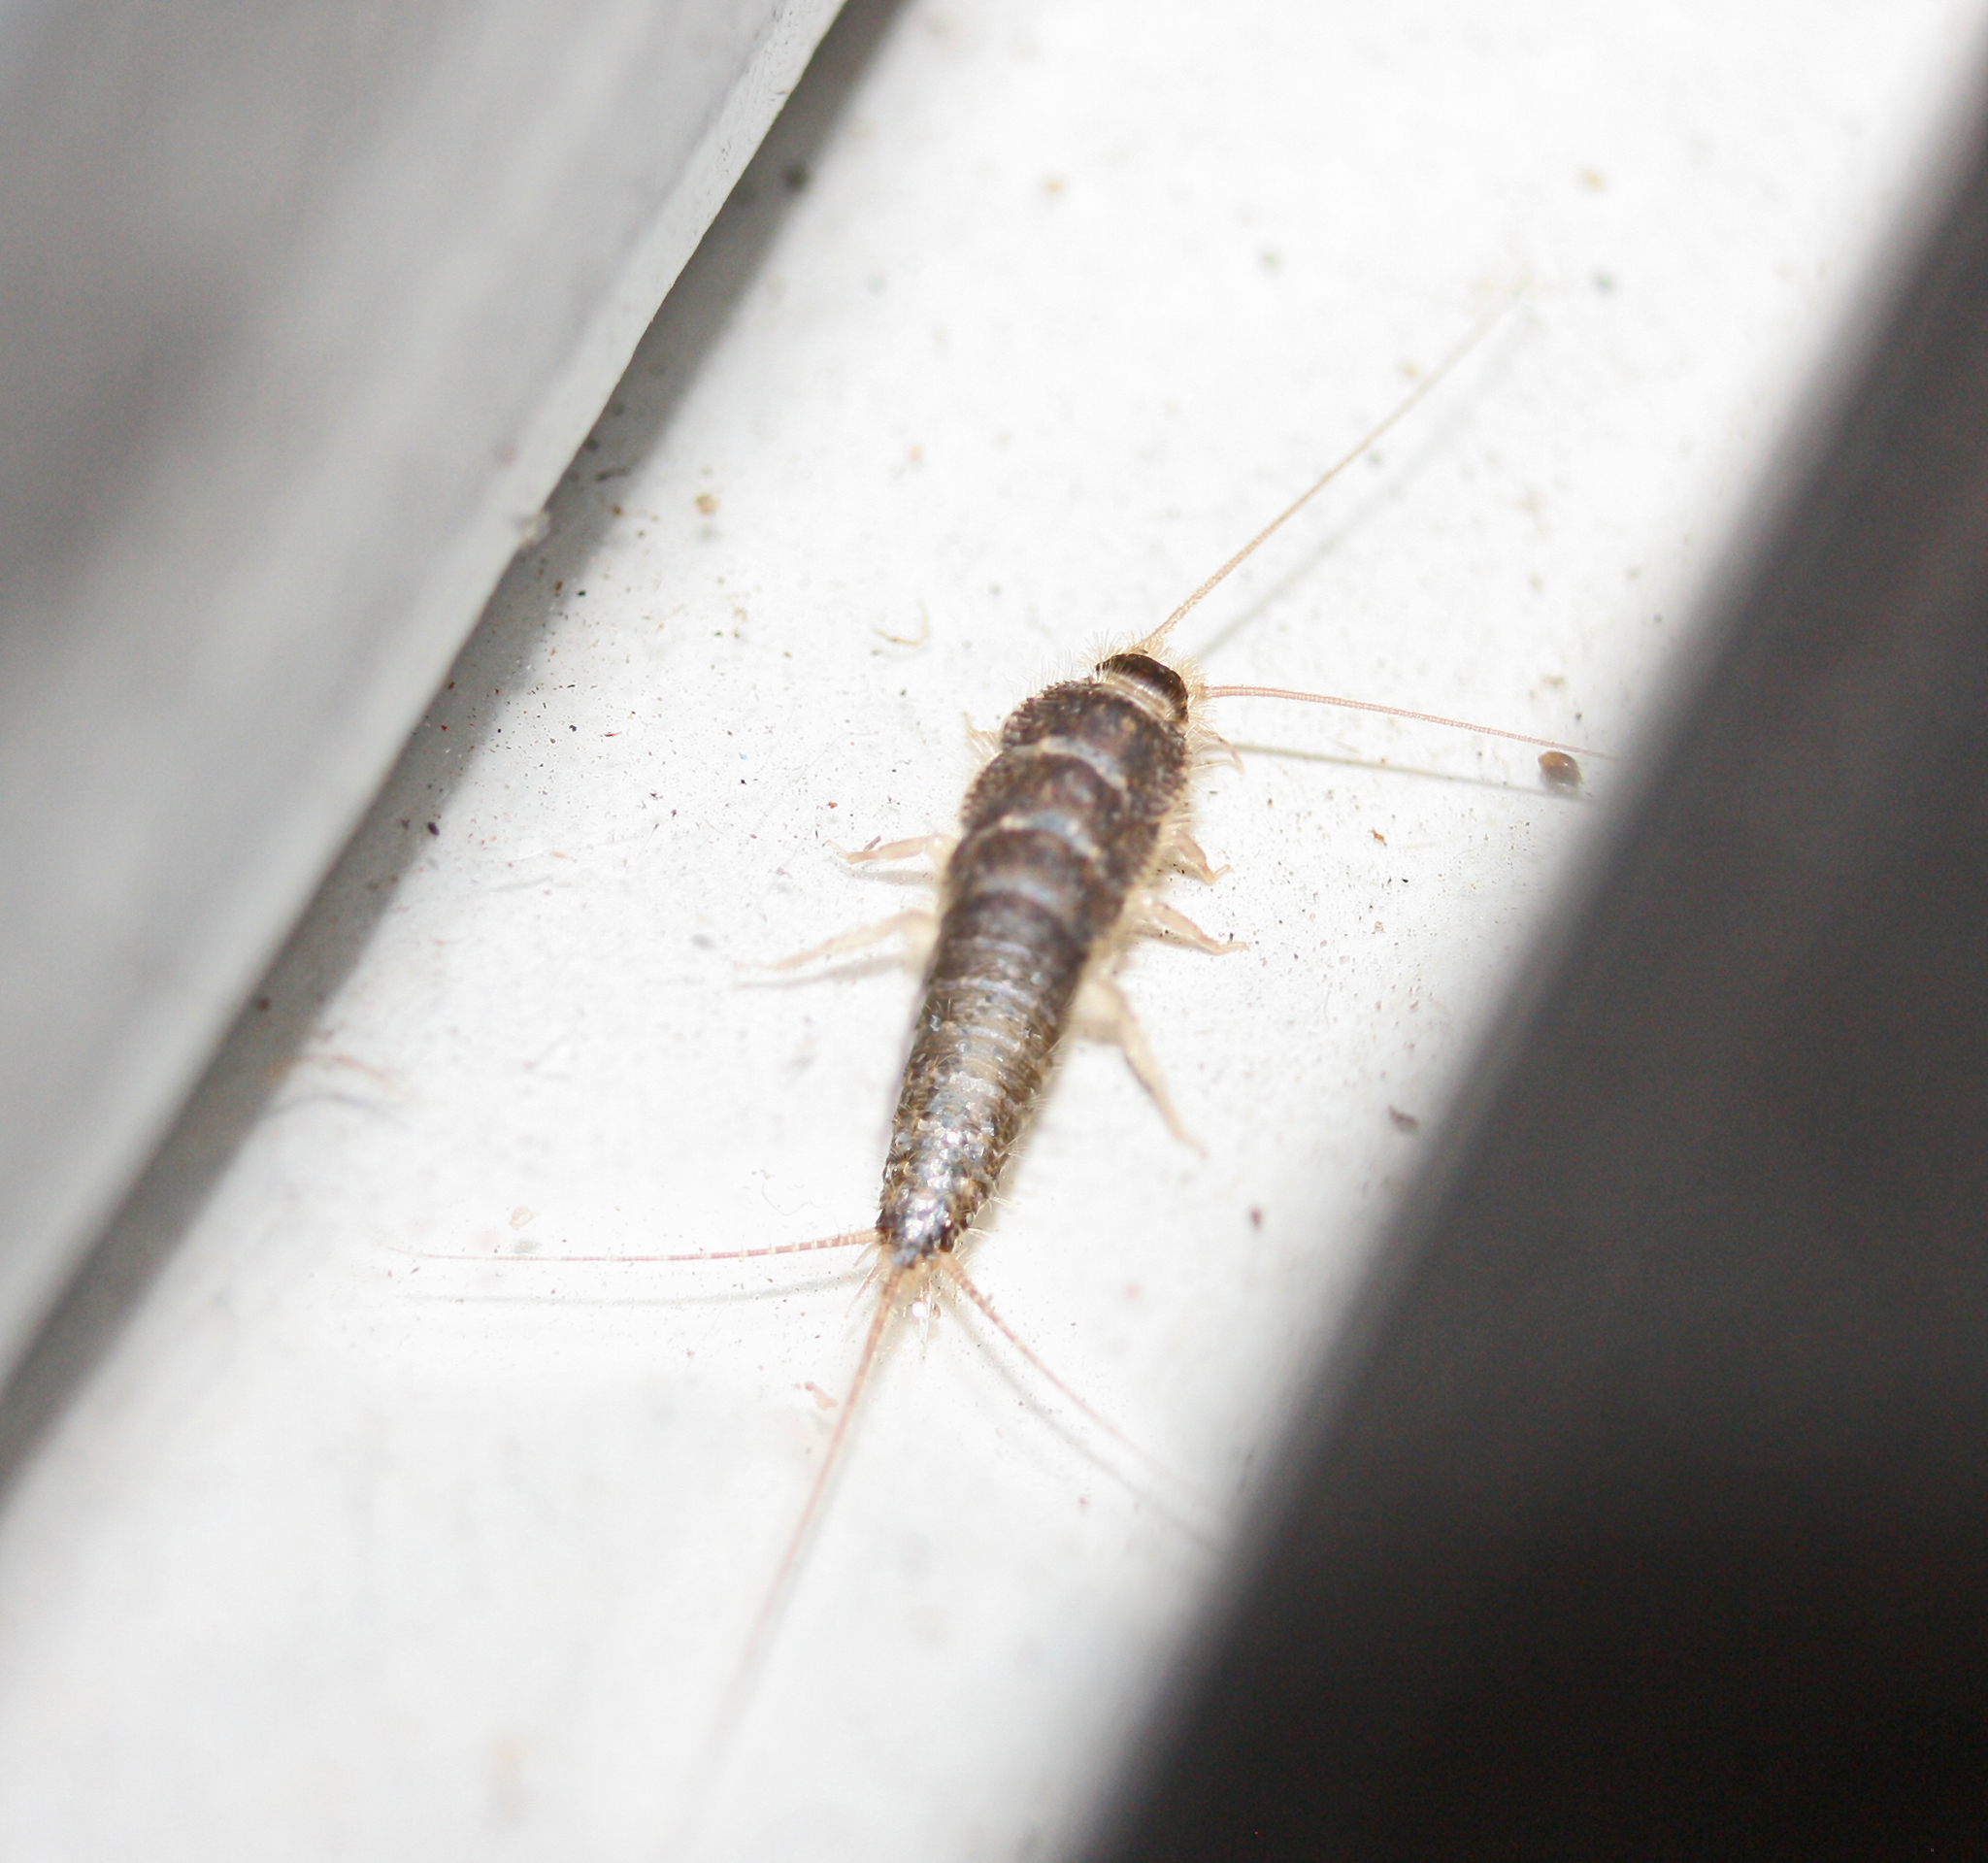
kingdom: Animalia
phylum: Arthropoda
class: Insecta
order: Zygentoma
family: Lepismatidae
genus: Ctenolepisma
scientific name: Ctenolepisma longicaudatum
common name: Silverfish
